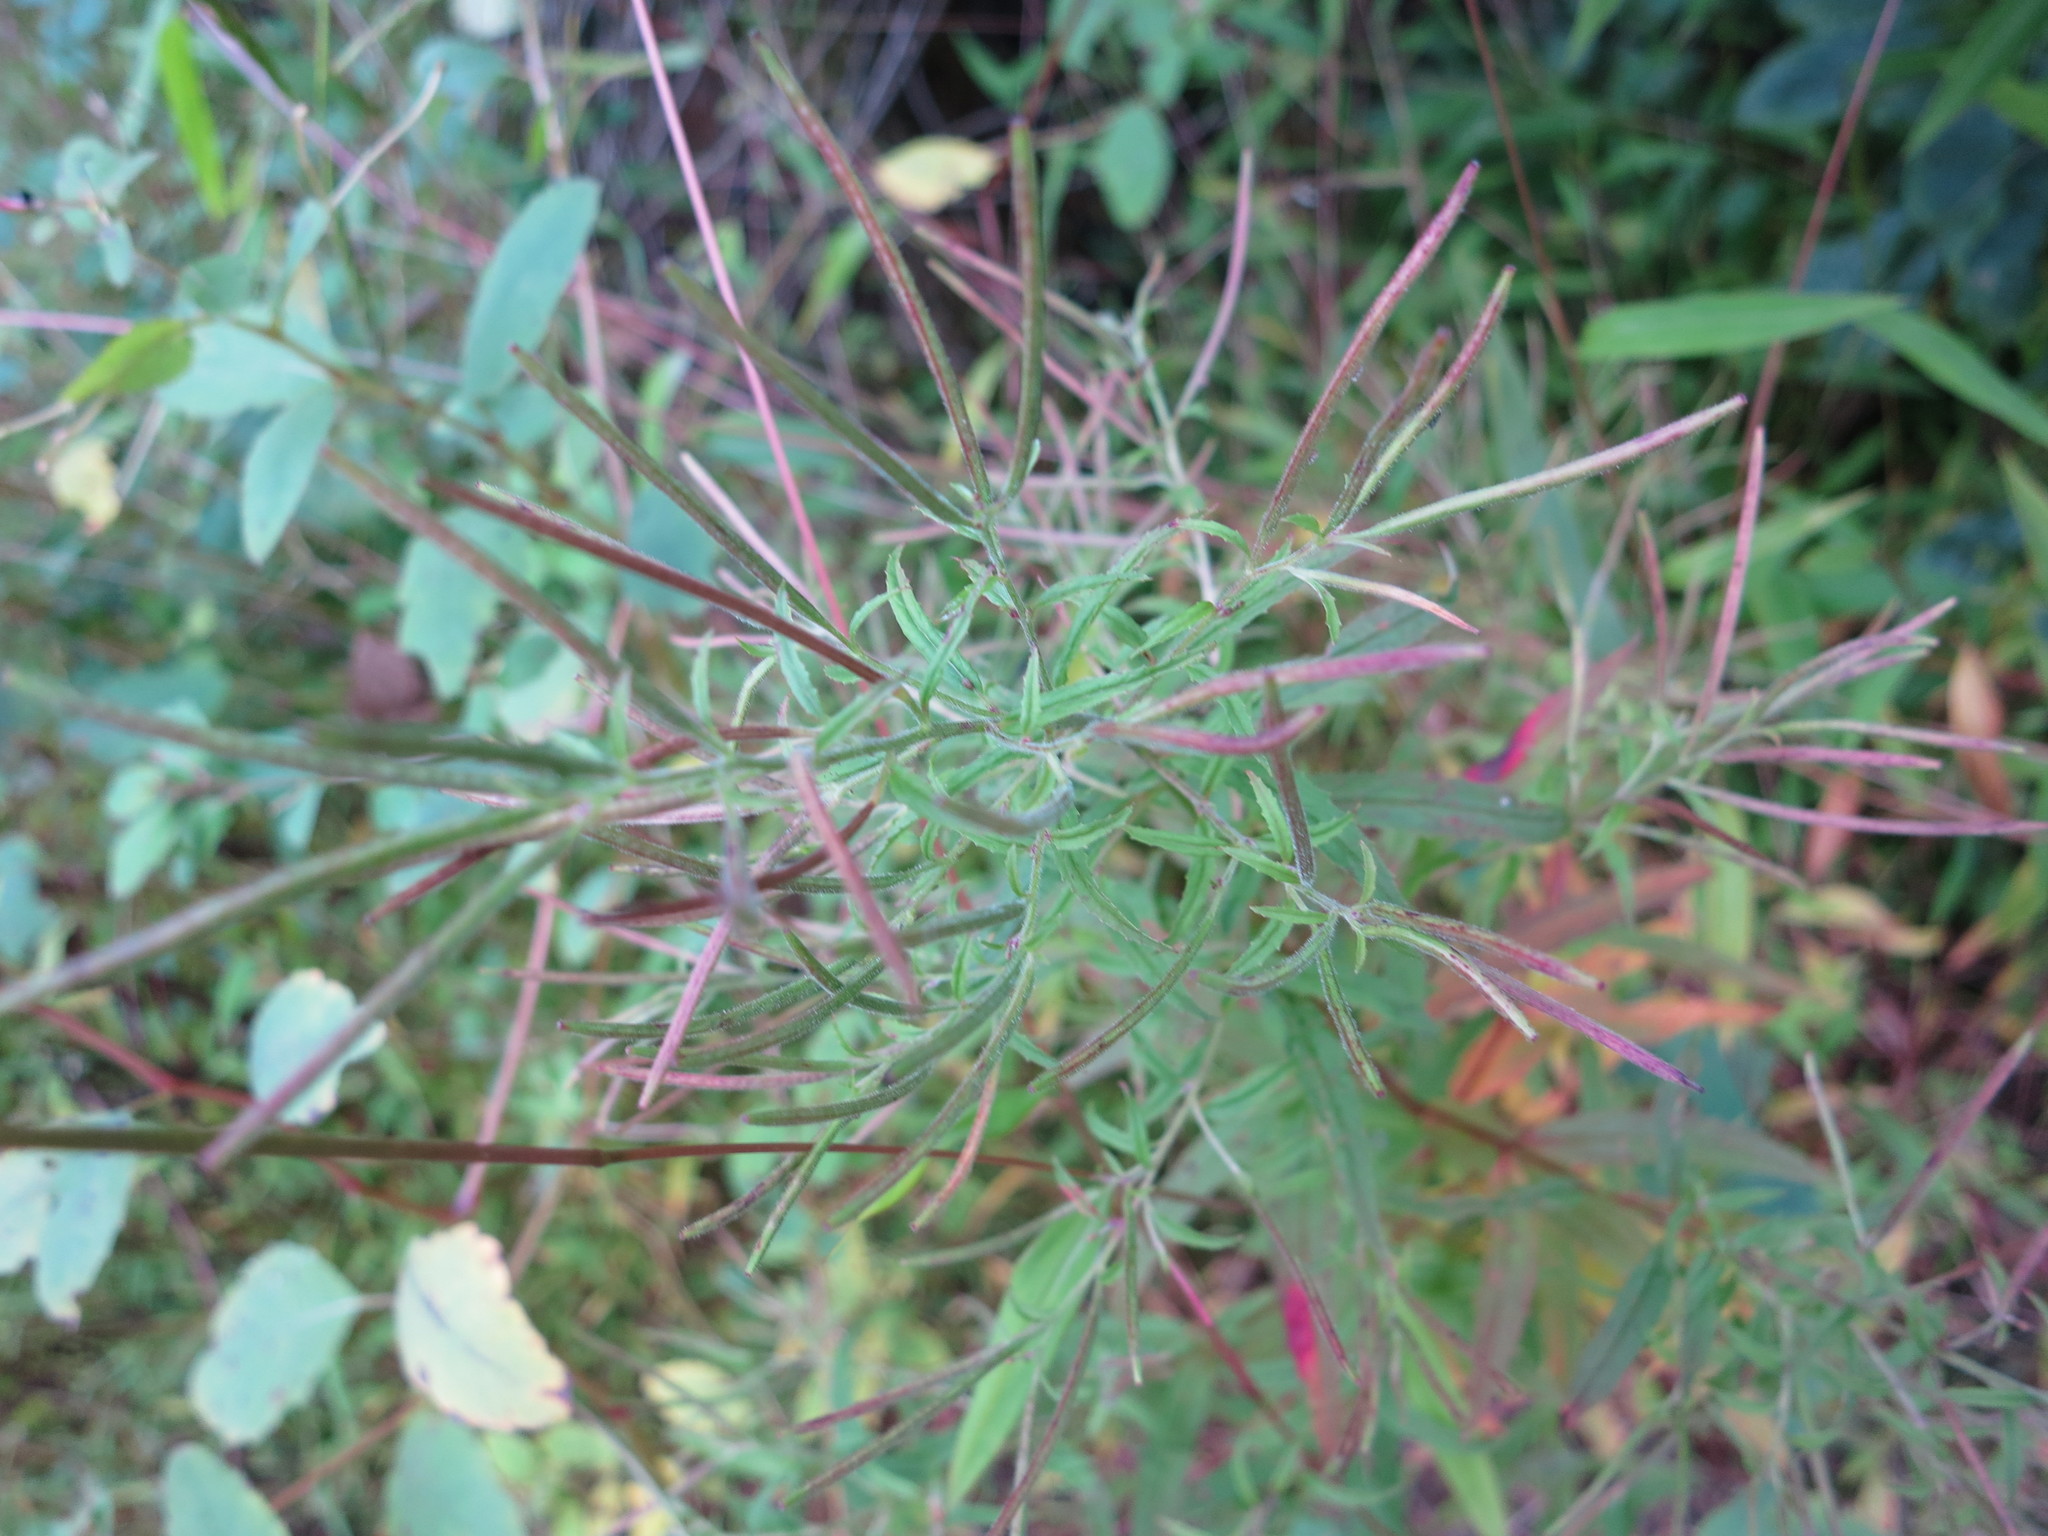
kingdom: Plantae
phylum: Tracheophyta
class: Magnoliopsida
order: Myrtales
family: Onagraceae
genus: Epilobium
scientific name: Epilobium coloratum
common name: Bronze willowherb
